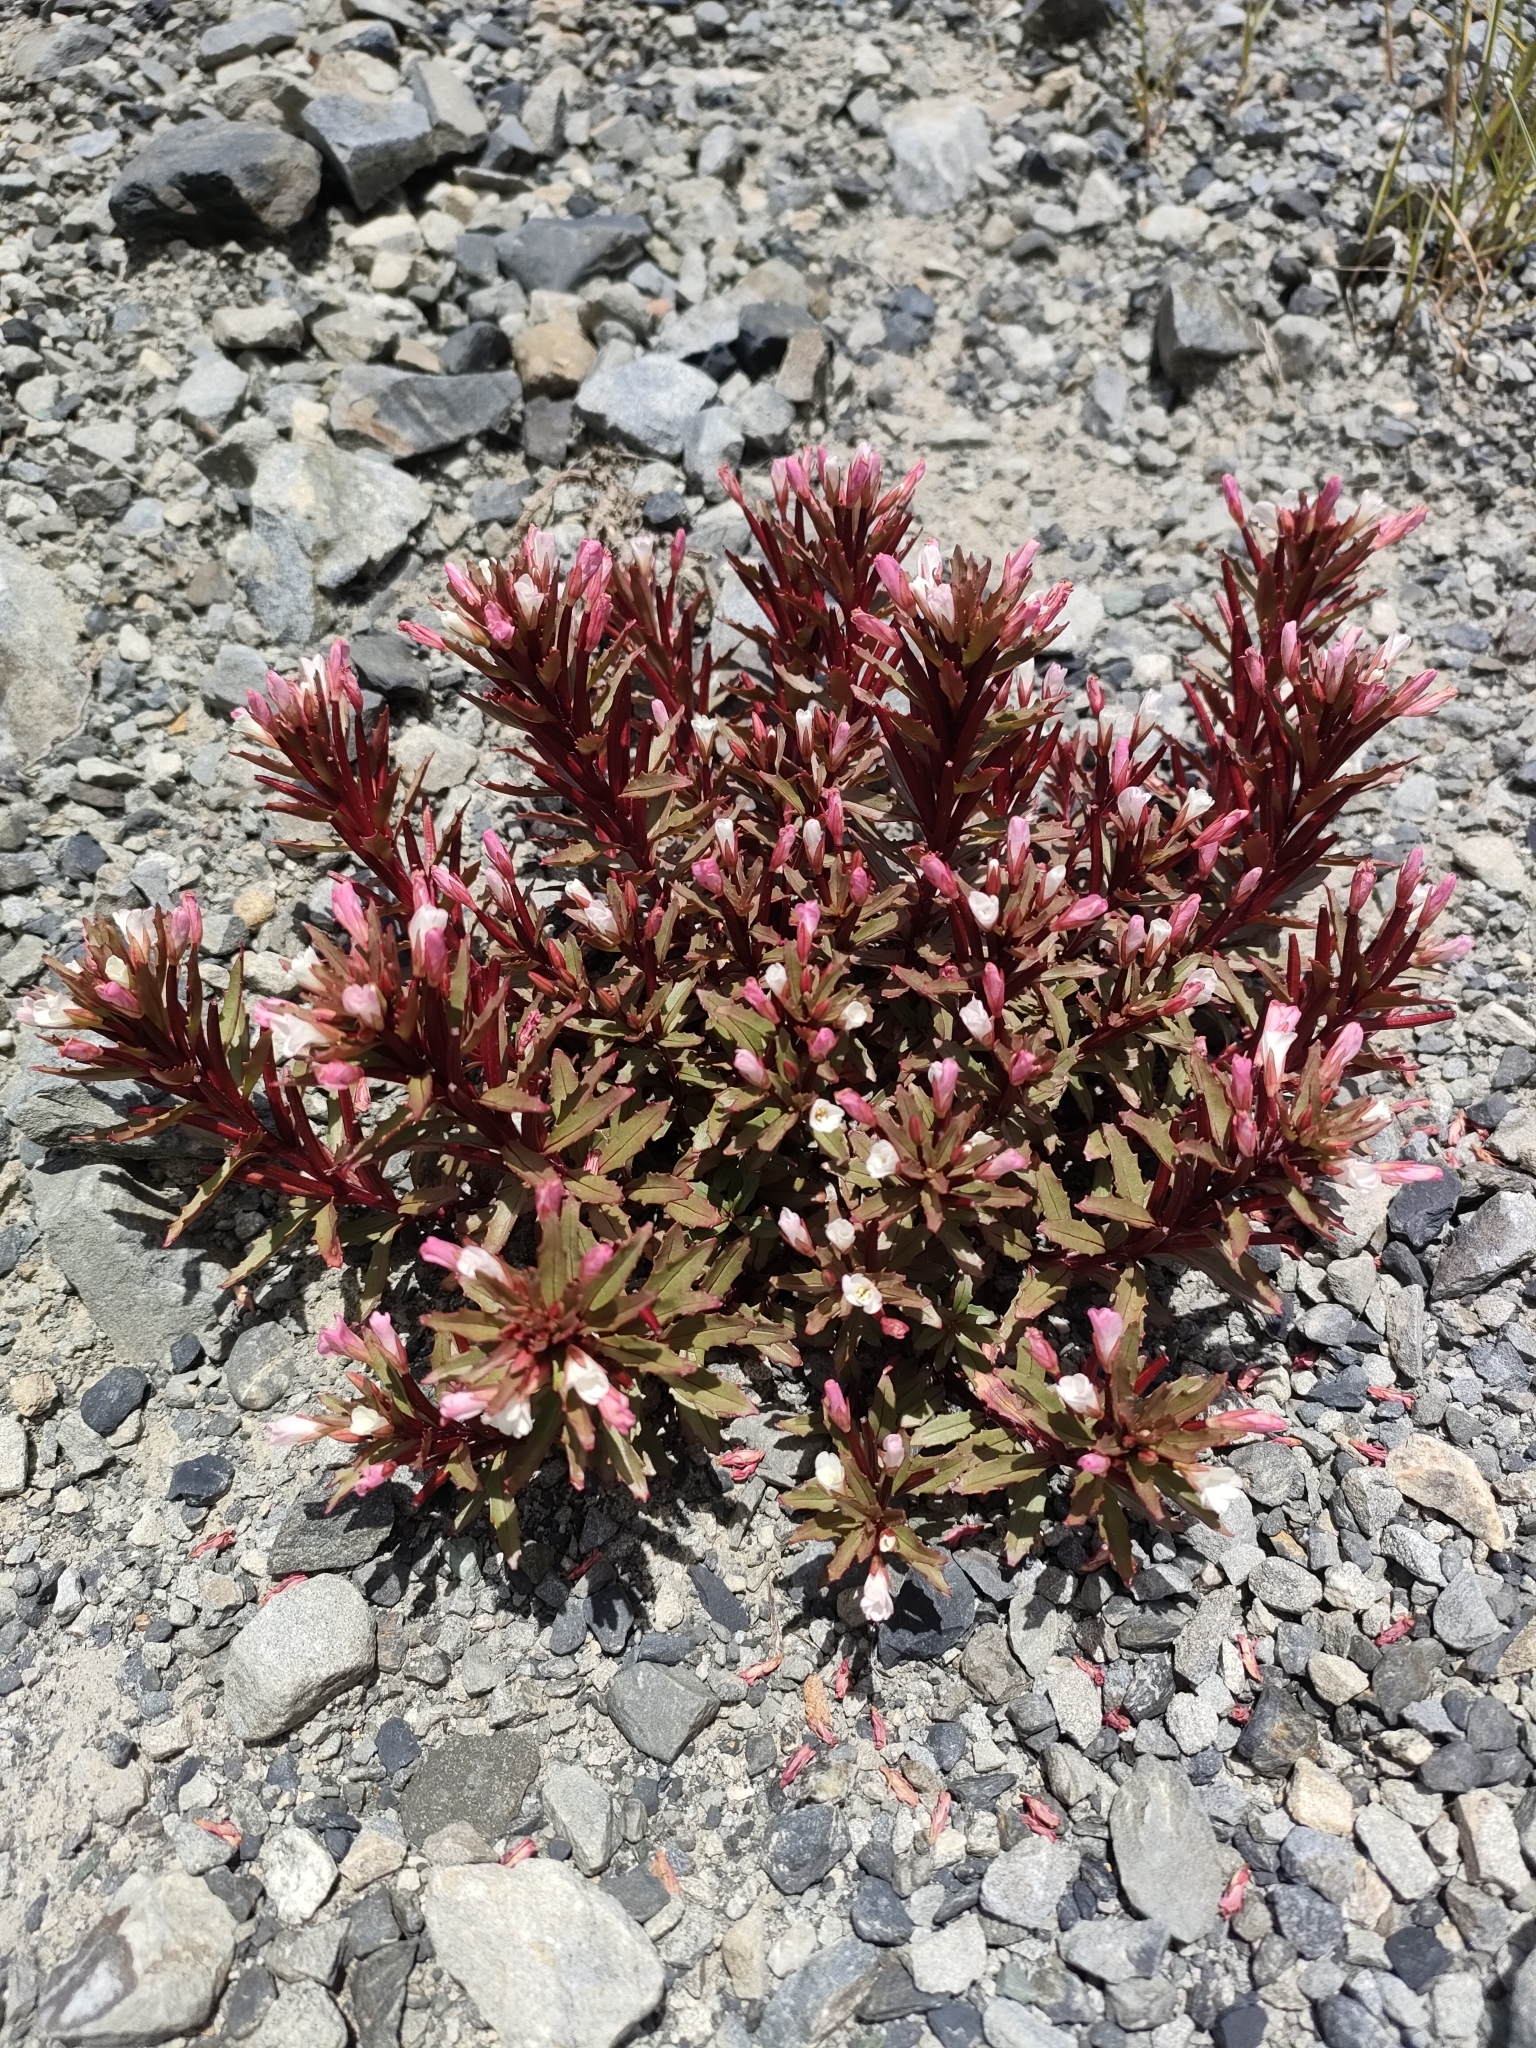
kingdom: Plantae
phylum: Tracheophyta
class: Magnoliopsida
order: Myrtales
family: Onagraceae
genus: Epilobium
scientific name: Epilobium pycnostachyum
